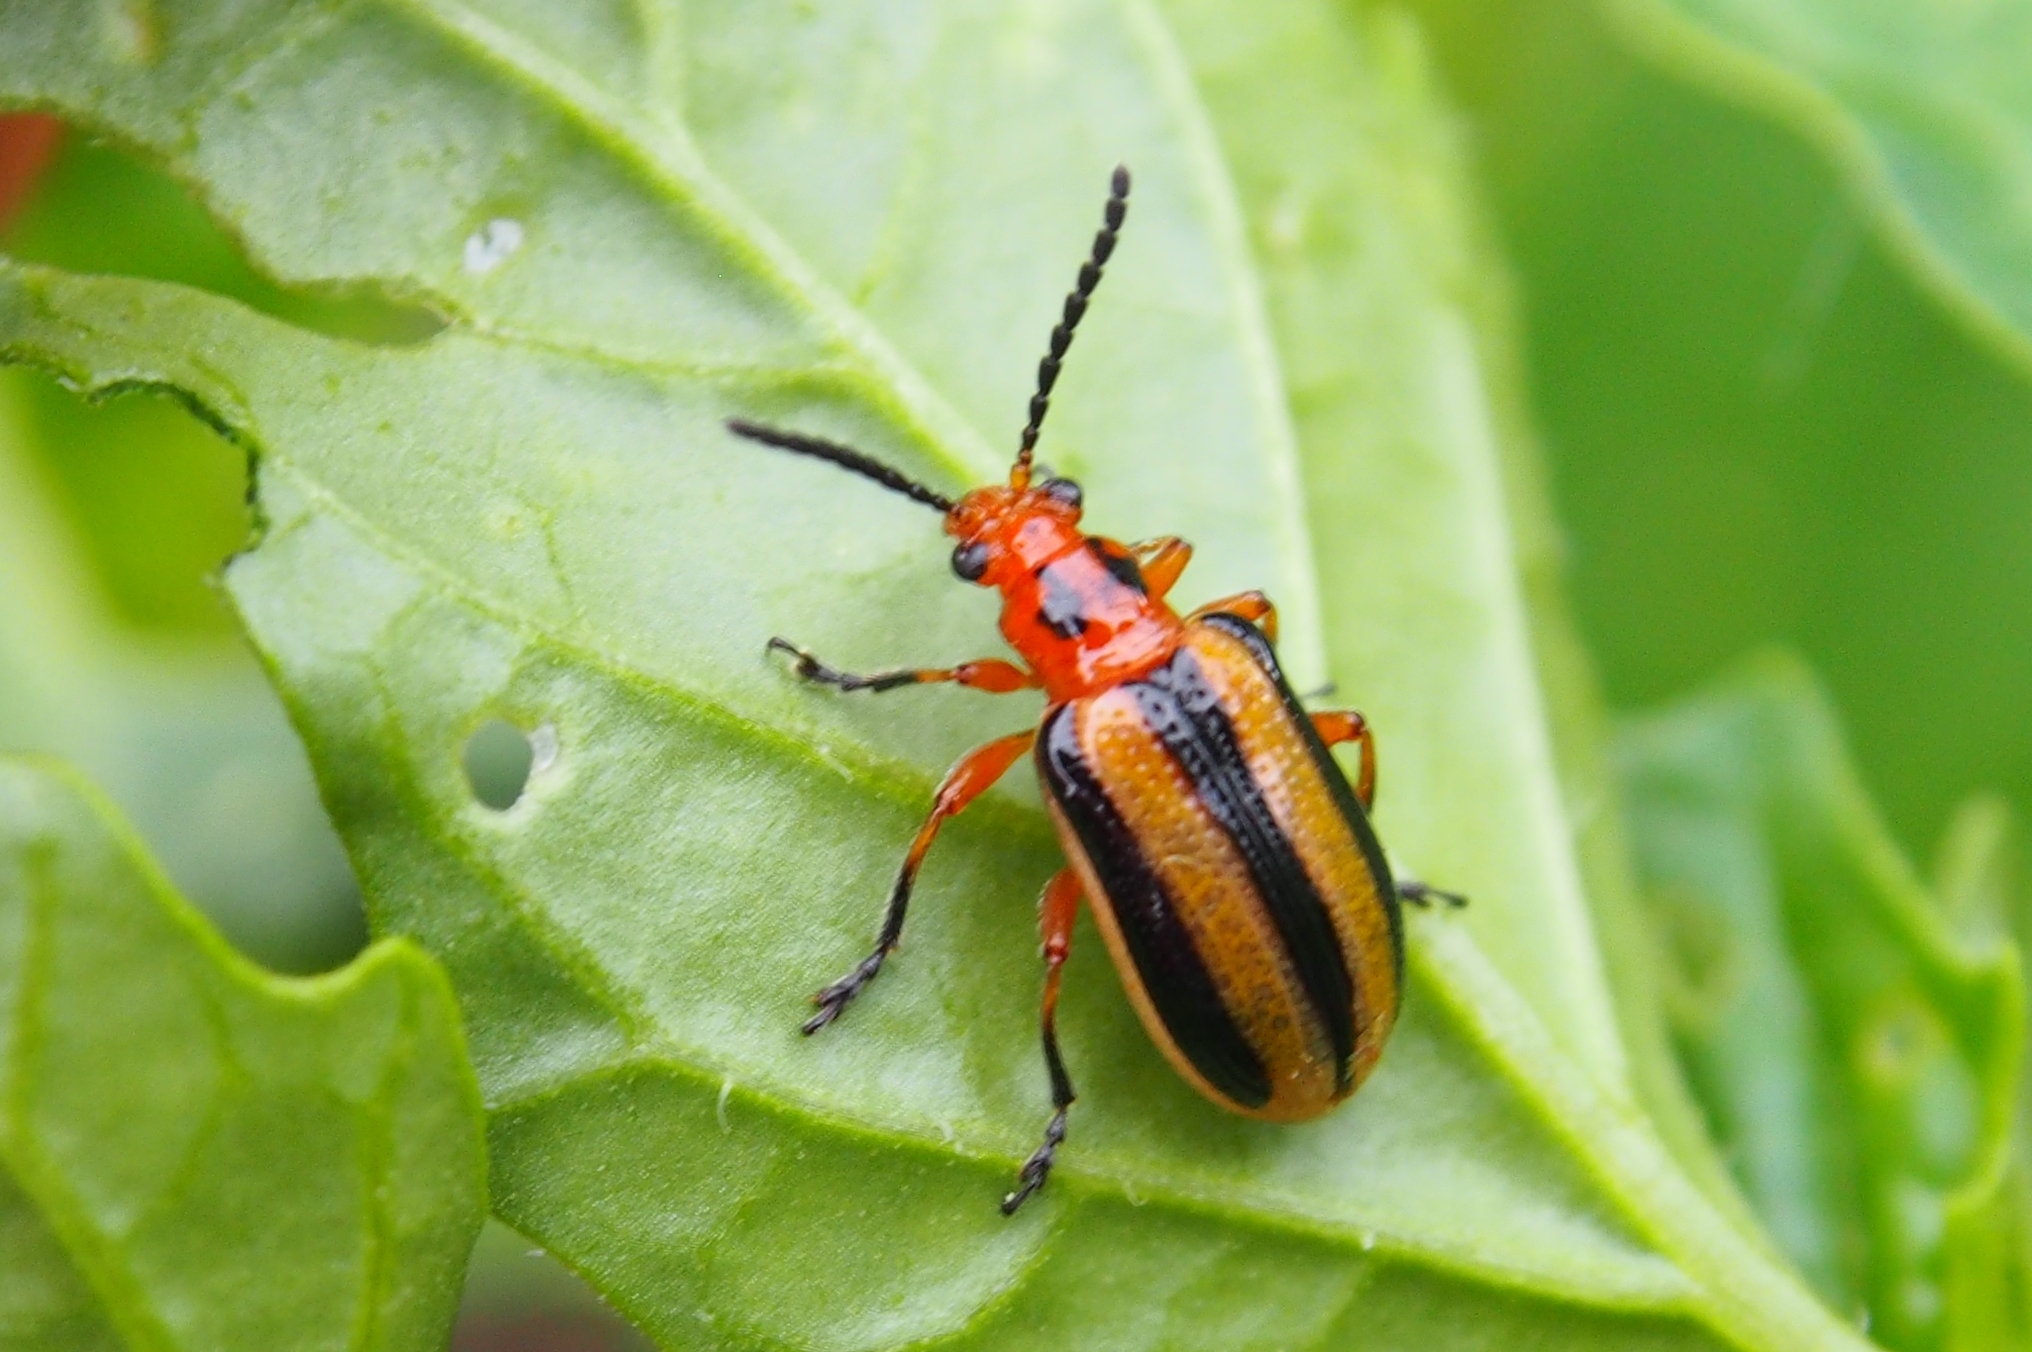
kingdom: Animalia
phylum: Arthropoda
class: Insecta
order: Coleoptera
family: Chrysomelidae
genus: Lema
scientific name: Lema daturaphila
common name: Leaf beetle
